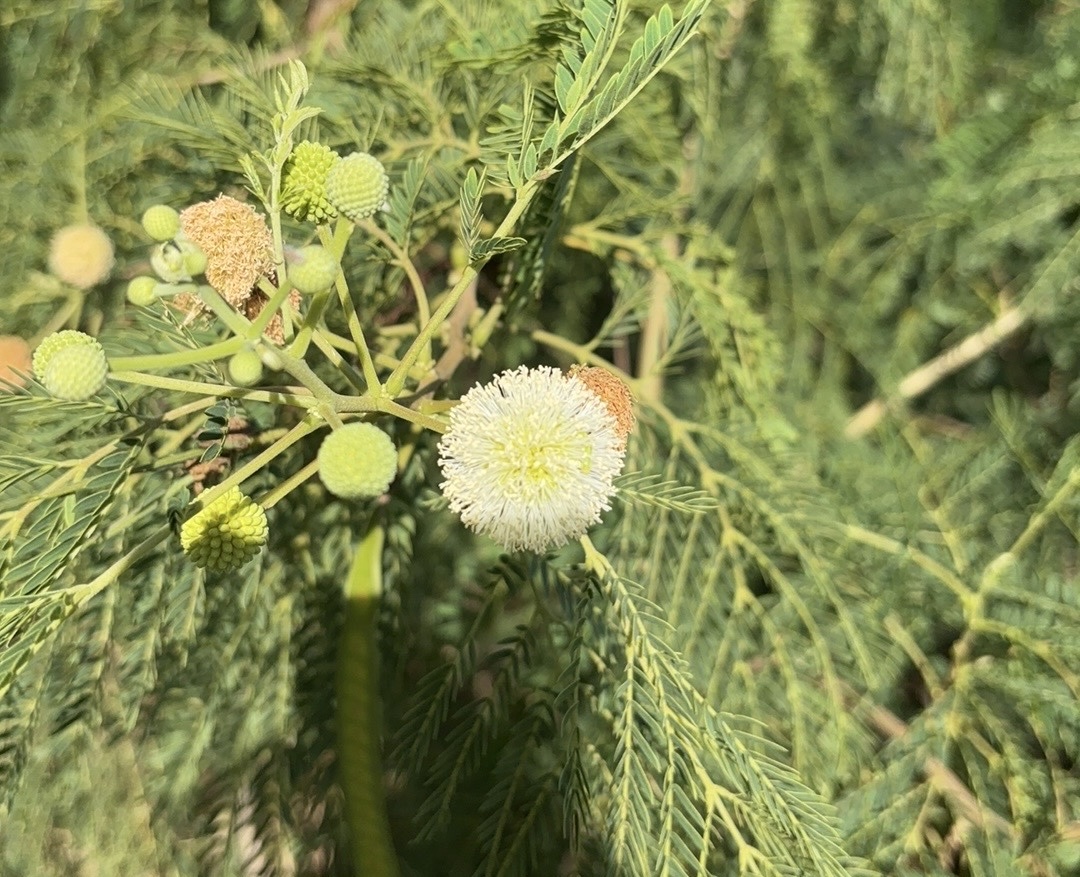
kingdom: Plantae
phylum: Tracheophyta
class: Magnoliopsida
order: Fabales
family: Fabaceae
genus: Leucaena
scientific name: Leucaena leucocephala
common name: White leadtree
